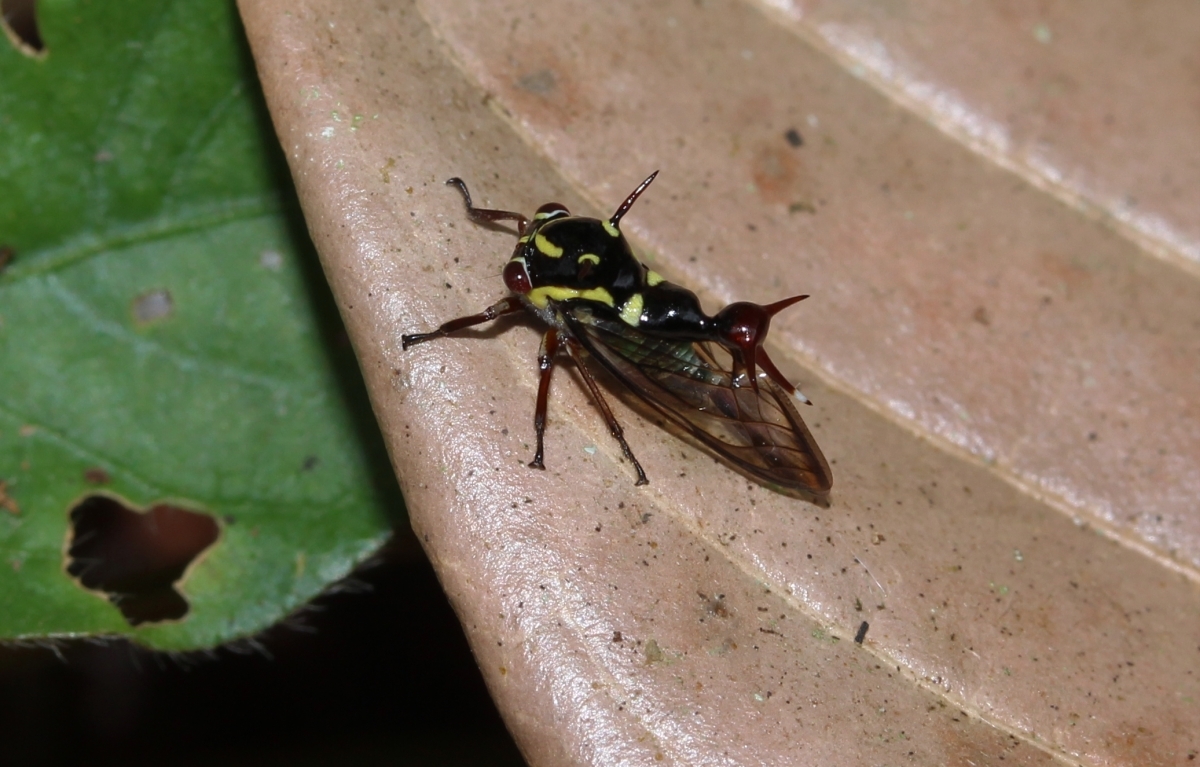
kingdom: Animalia
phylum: Arthropoda
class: Insecta
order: Hemiptera
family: Membracidae
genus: Heteronotus
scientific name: Heteronotus
